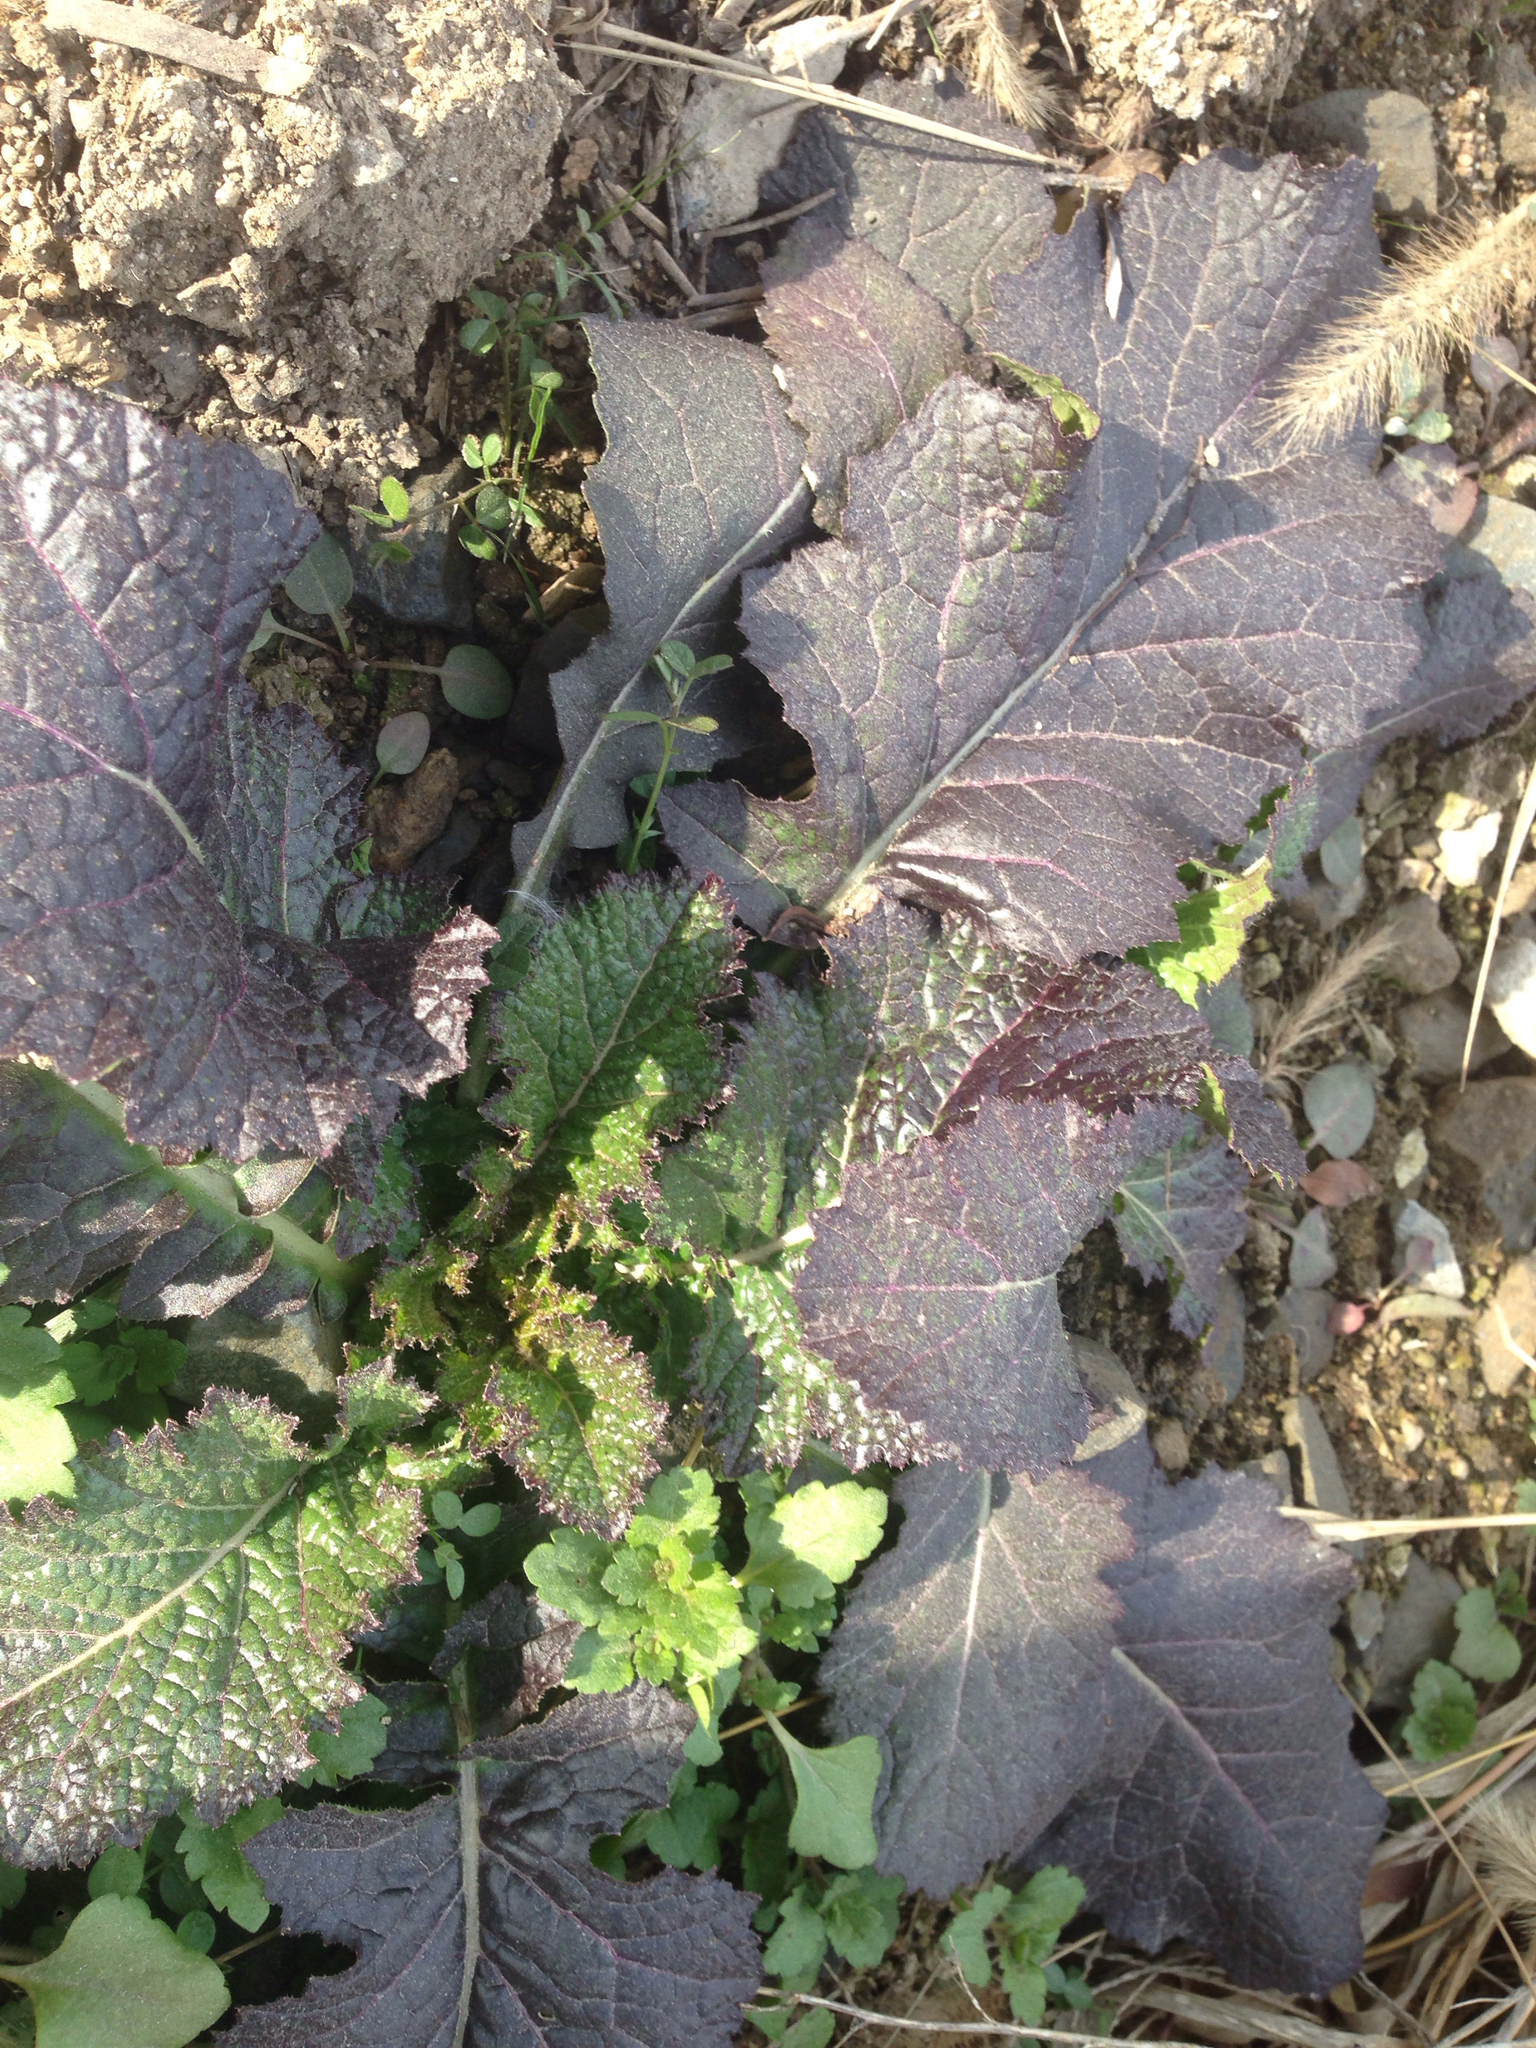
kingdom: Plantae
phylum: Tracheophyta
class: Magnoliopsida
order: Brassicales
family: Brassicaceae
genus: Brassica
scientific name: Brassica juncea
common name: Brown mustard
